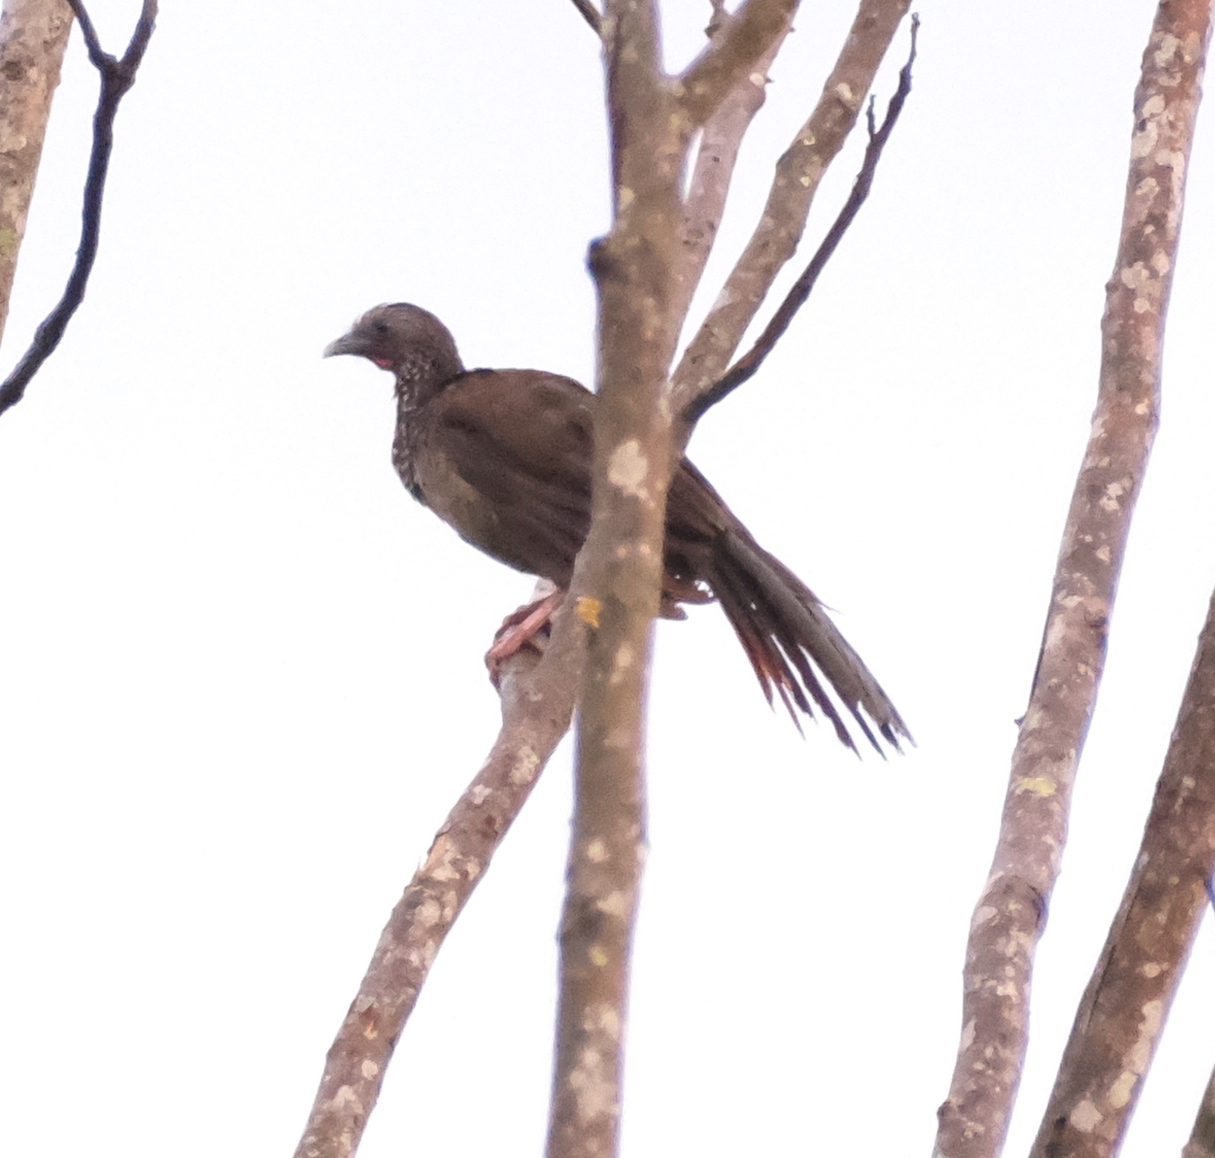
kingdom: Animalia
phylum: Chordata
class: Aves
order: Galliformes
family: Cracidae
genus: Ortalis
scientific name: Ortalis guttata
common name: Speckled chachalaca
